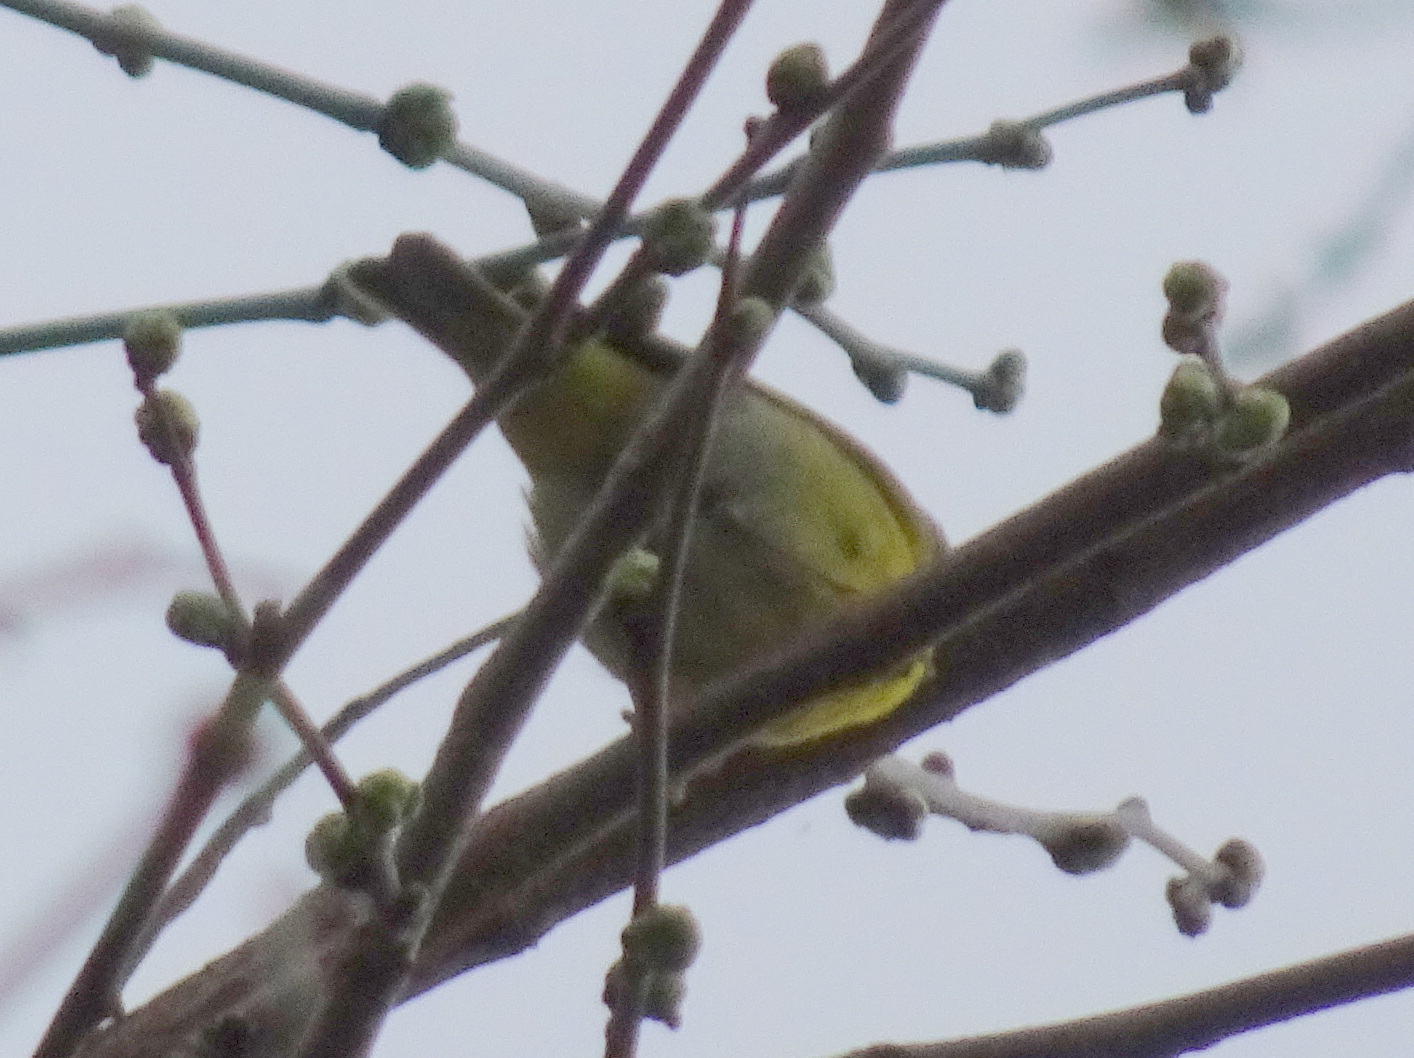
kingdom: Animalia
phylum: Chordata
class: Aves
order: Passeriformes
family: Parulidae
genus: Leiothlypis
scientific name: Leiothlypis ruficapilla
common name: Nashville warbler
